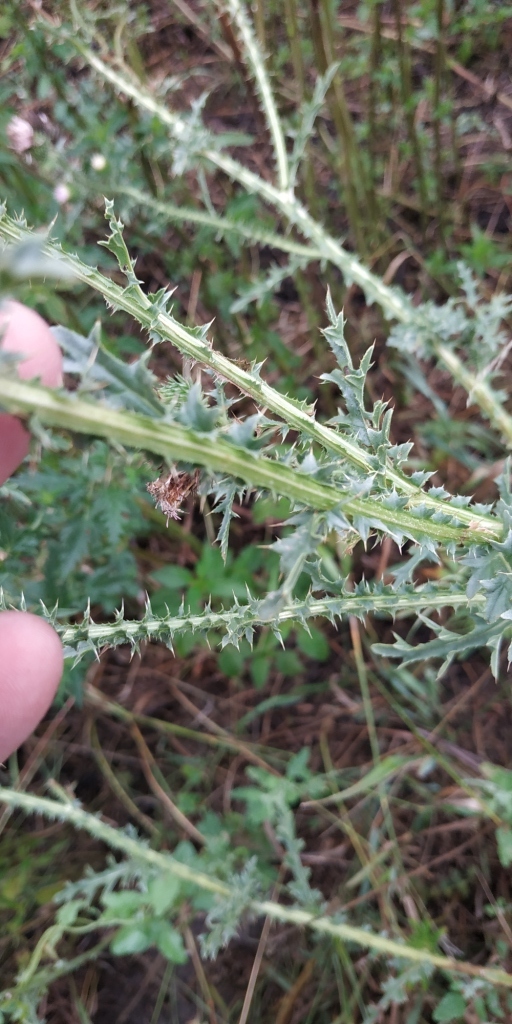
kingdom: Plantae
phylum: Tracheophyta
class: Magnoliopsida
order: Asterales
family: Asteraceae
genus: Carduus
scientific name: Carduus acanthoides
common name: Plumeless thistle
